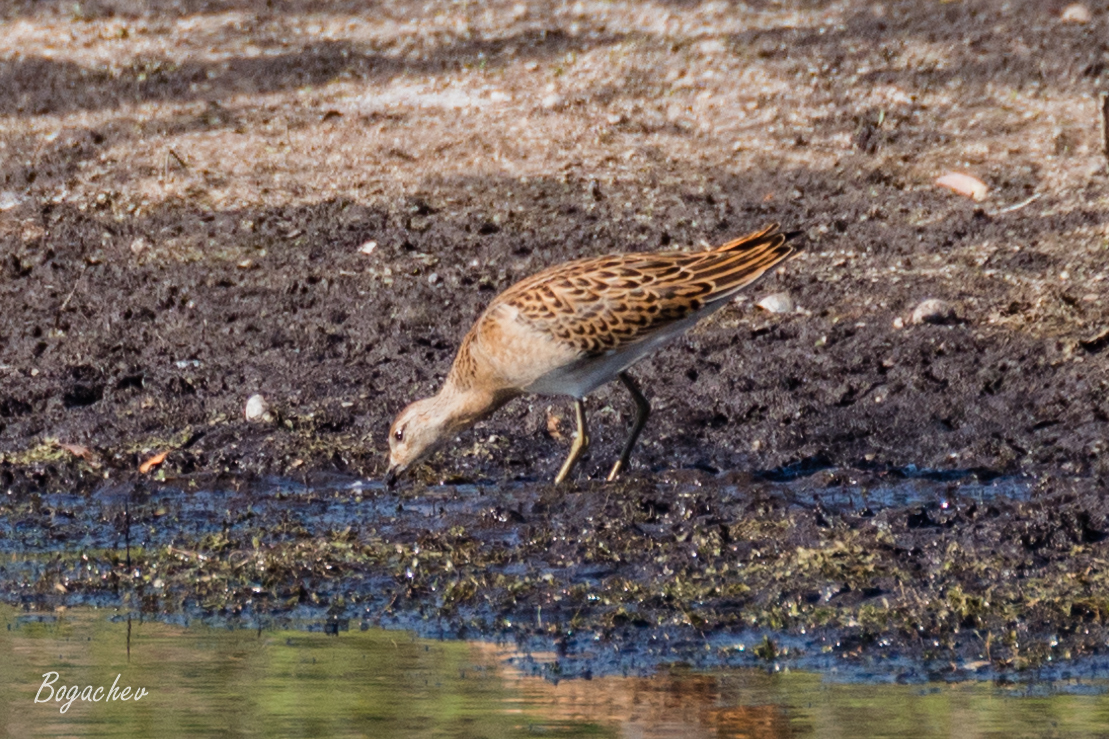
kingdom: Animalia
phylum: Chordata
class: Aves
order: Charadriiformes
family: Scolopacidae
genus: Calidris
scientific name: Calidris pugnax
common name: Ruff
